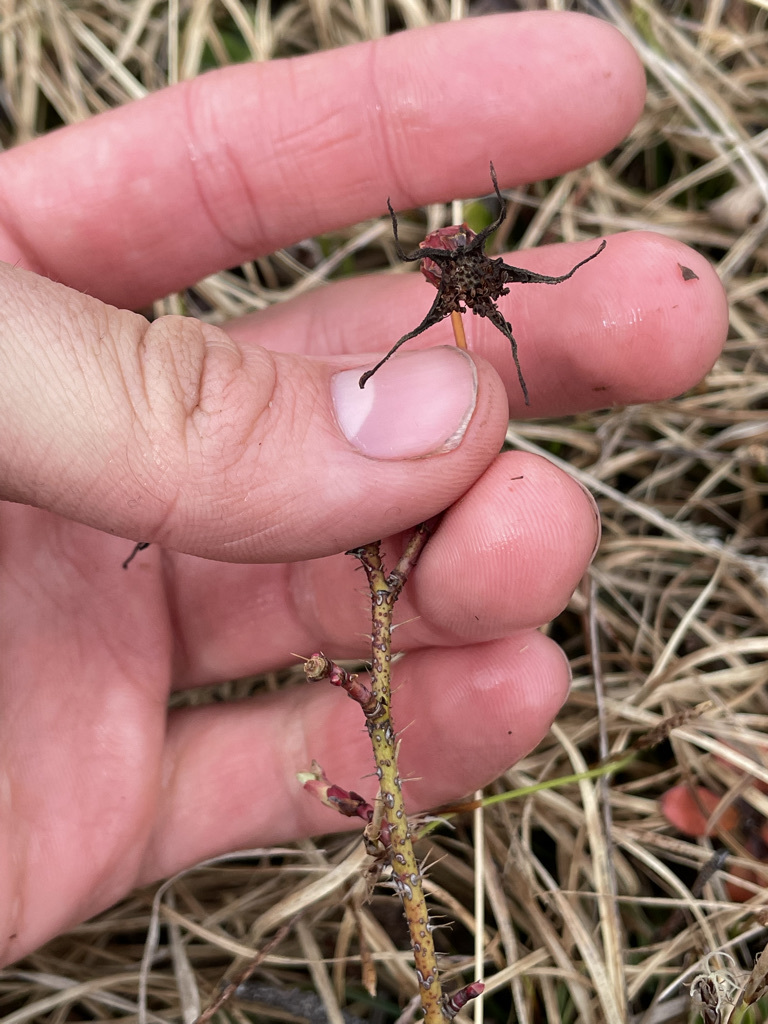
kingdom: Plantae
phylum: Tracheophyta
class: Magnoliopsida
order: Rosales
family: Rosaceae
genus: Rosa
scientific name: Rosa arkansana
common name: Prairie rose
